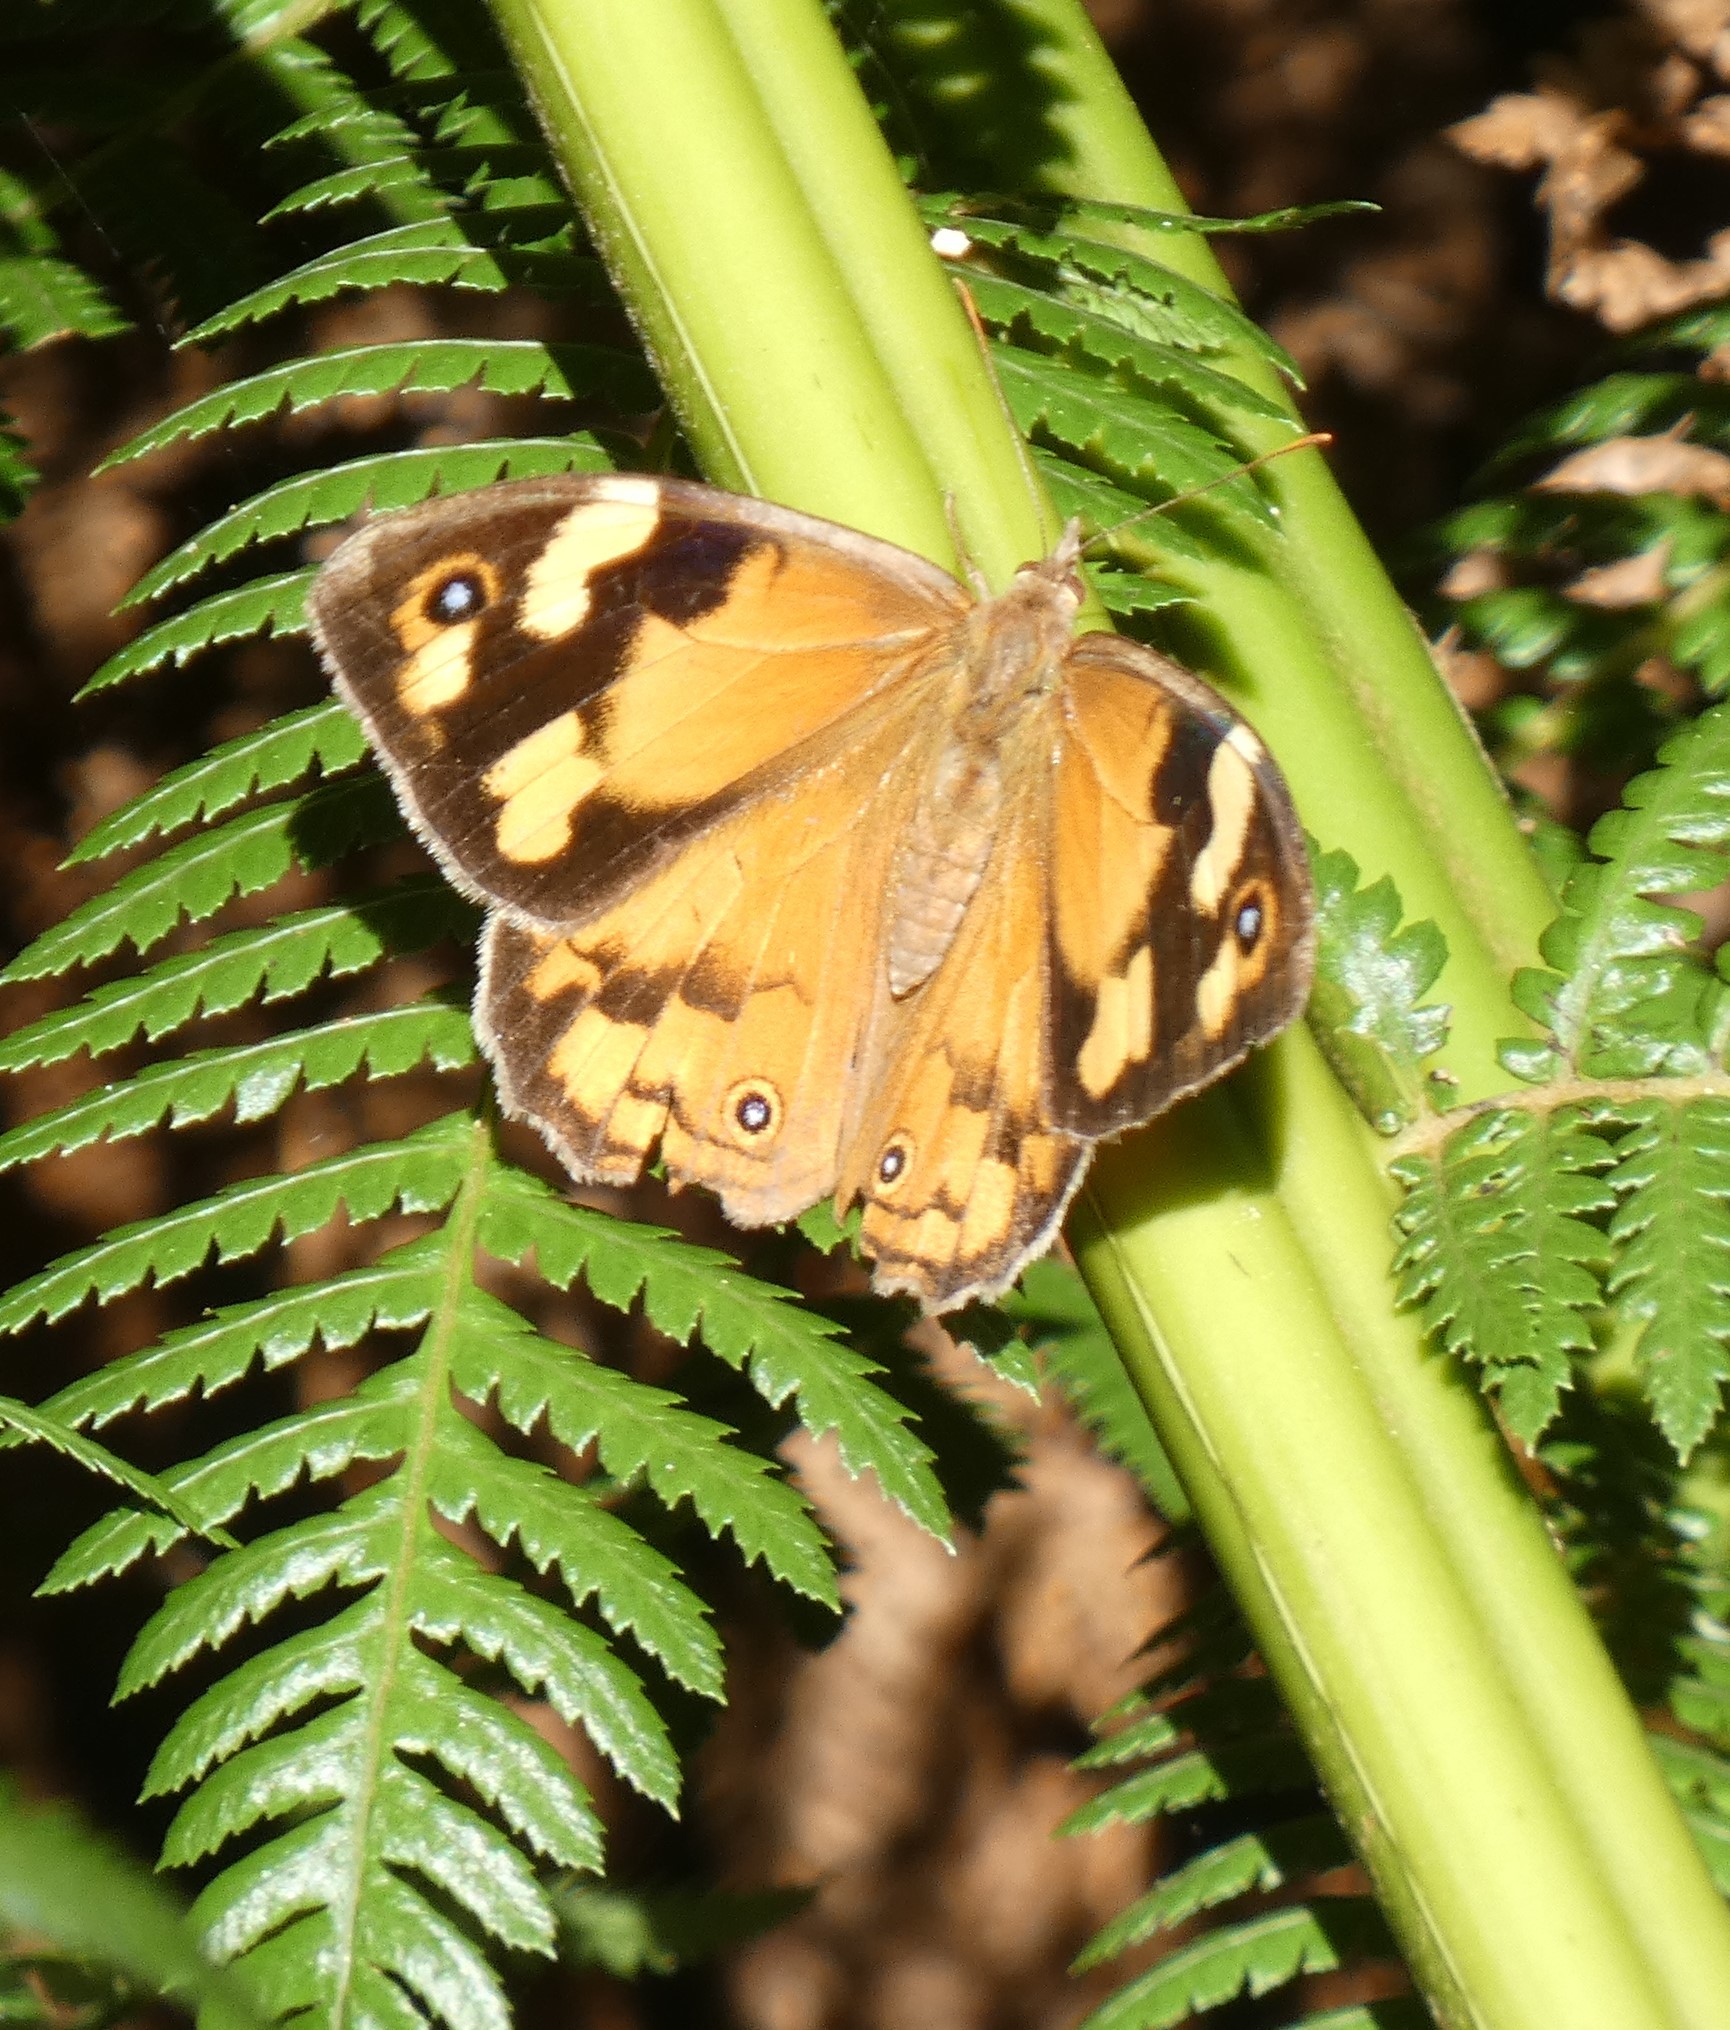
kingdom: Animalia
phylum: Arthropoda
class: Insecta
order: Lepidoptera
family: Nymphalidae
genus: Heteronympha
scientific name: Heteronympha merope
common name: Common brown
